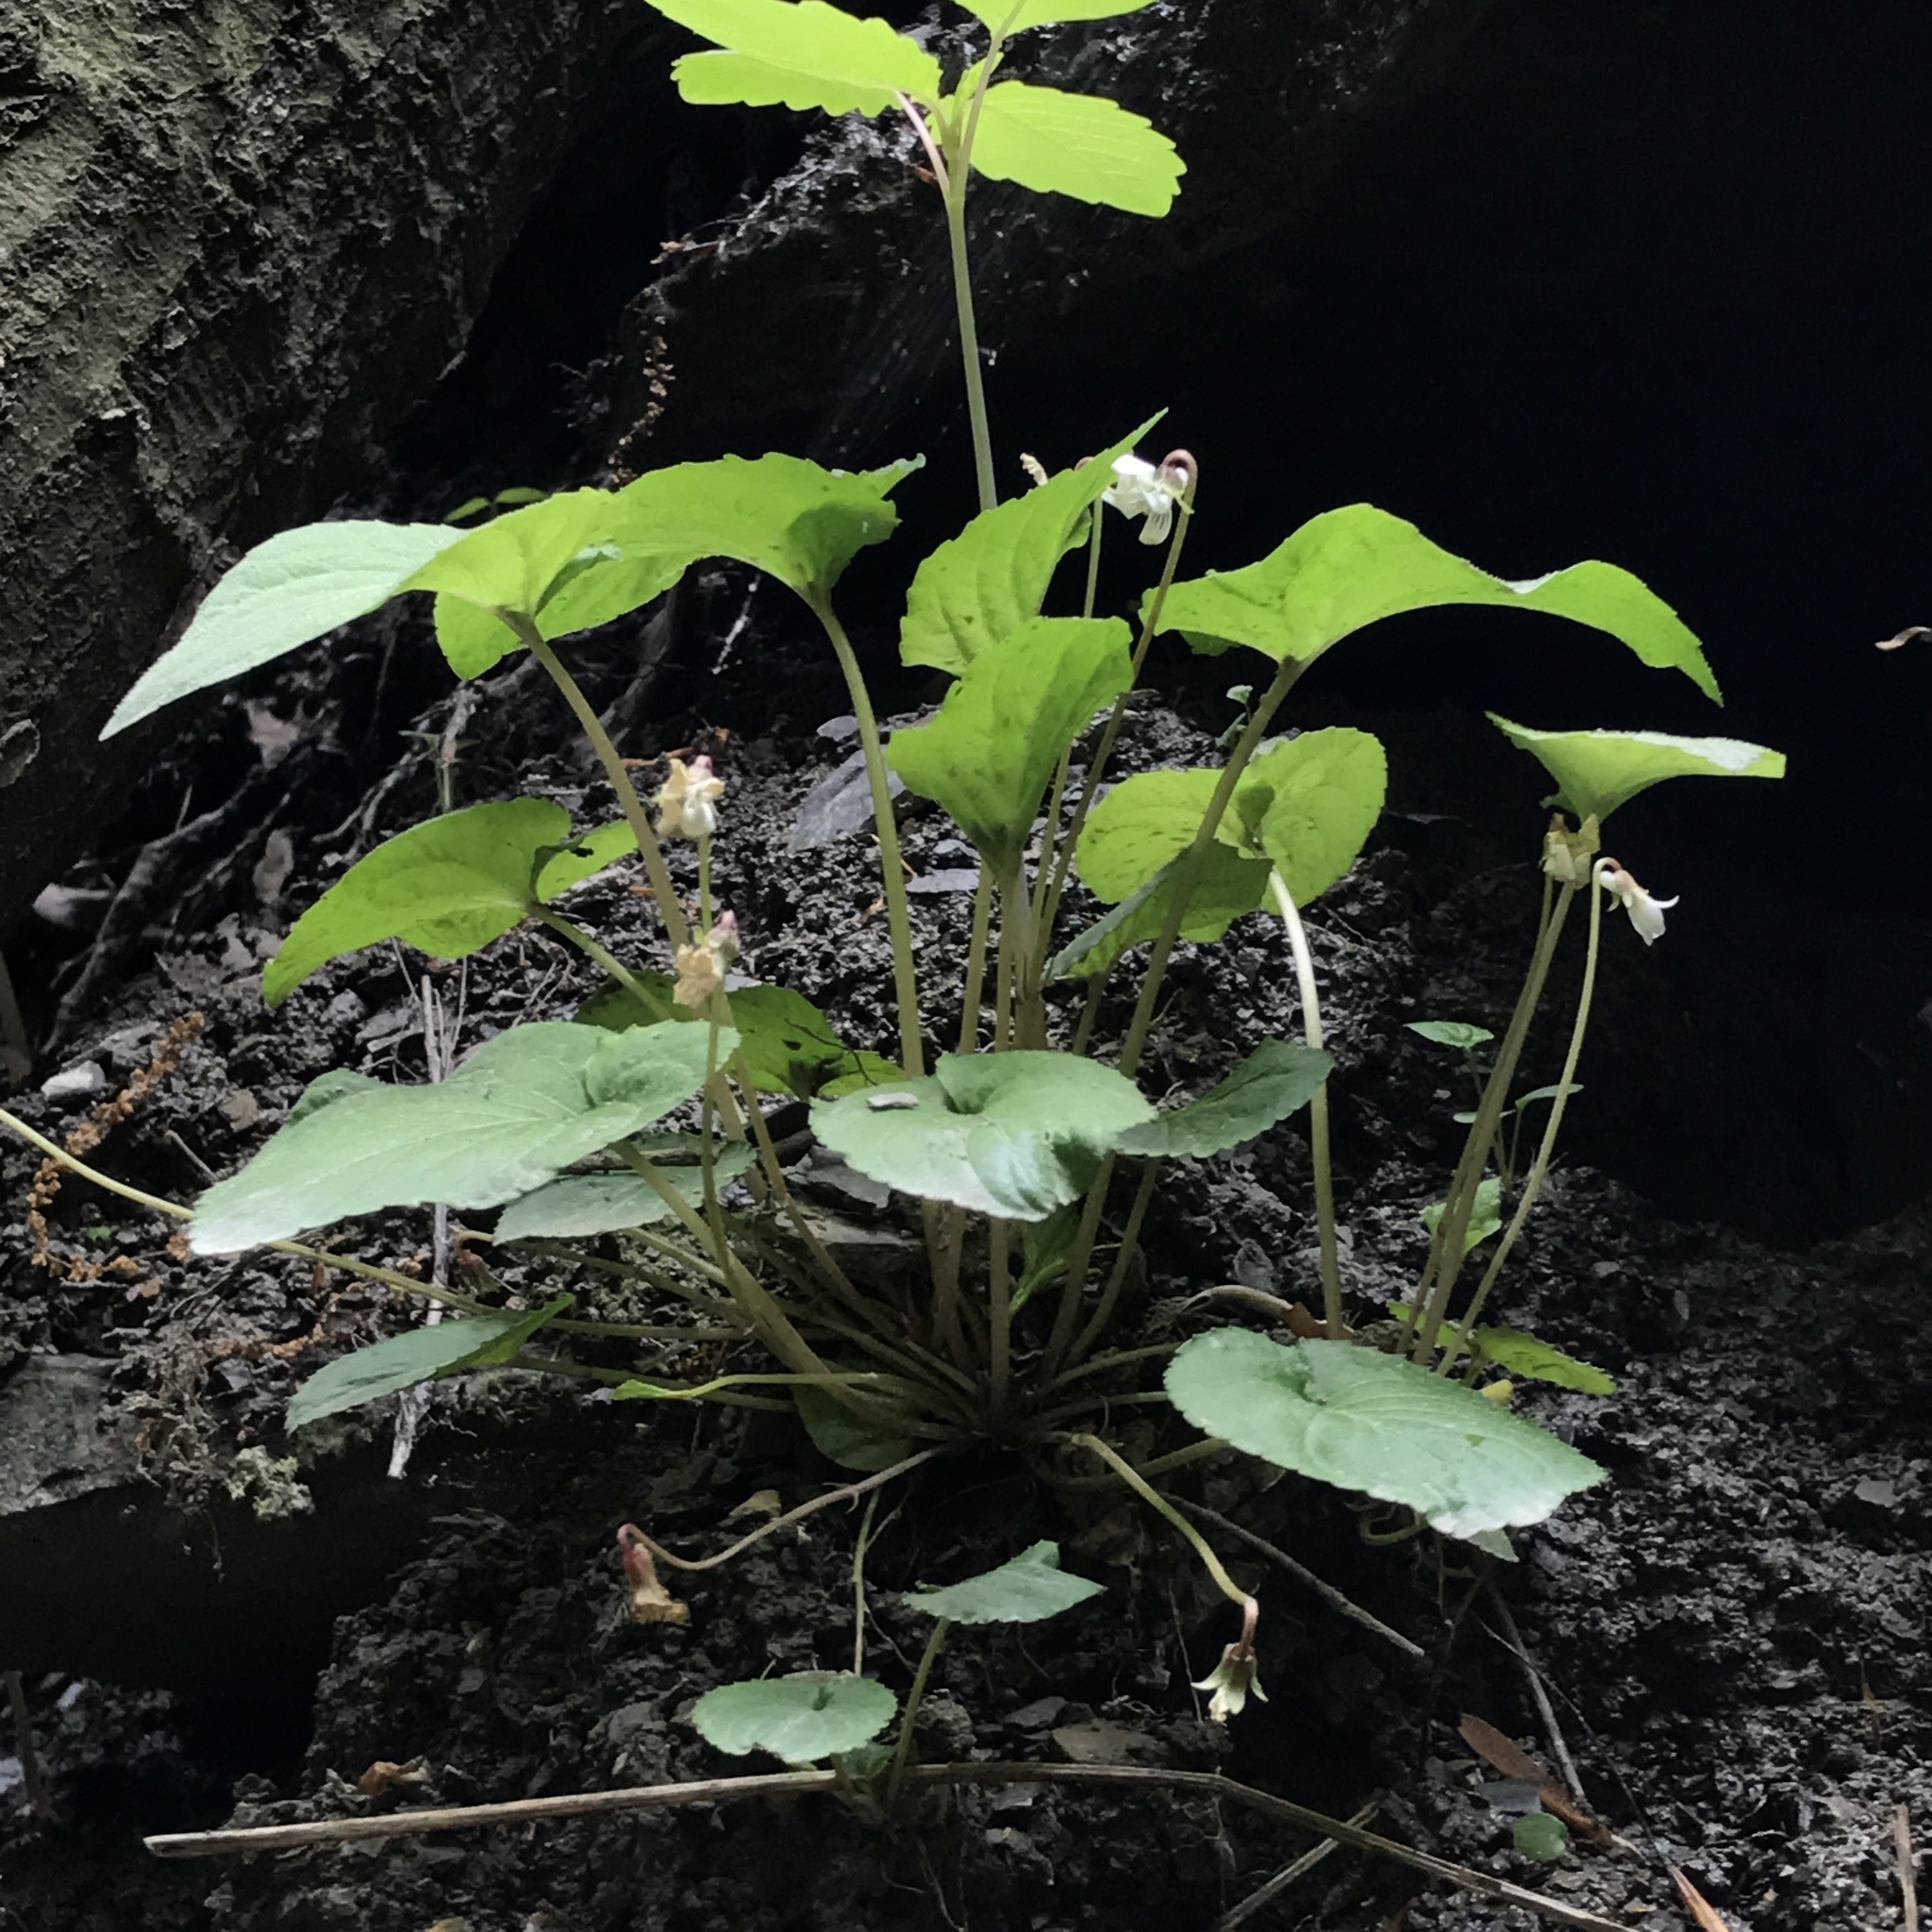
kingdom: Plantae
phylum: Tracheophyta
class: Magnoliopsida
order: Malpighiales
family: Violaceae
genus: Viola
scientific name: Viola blanda
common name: Sweet white violet
